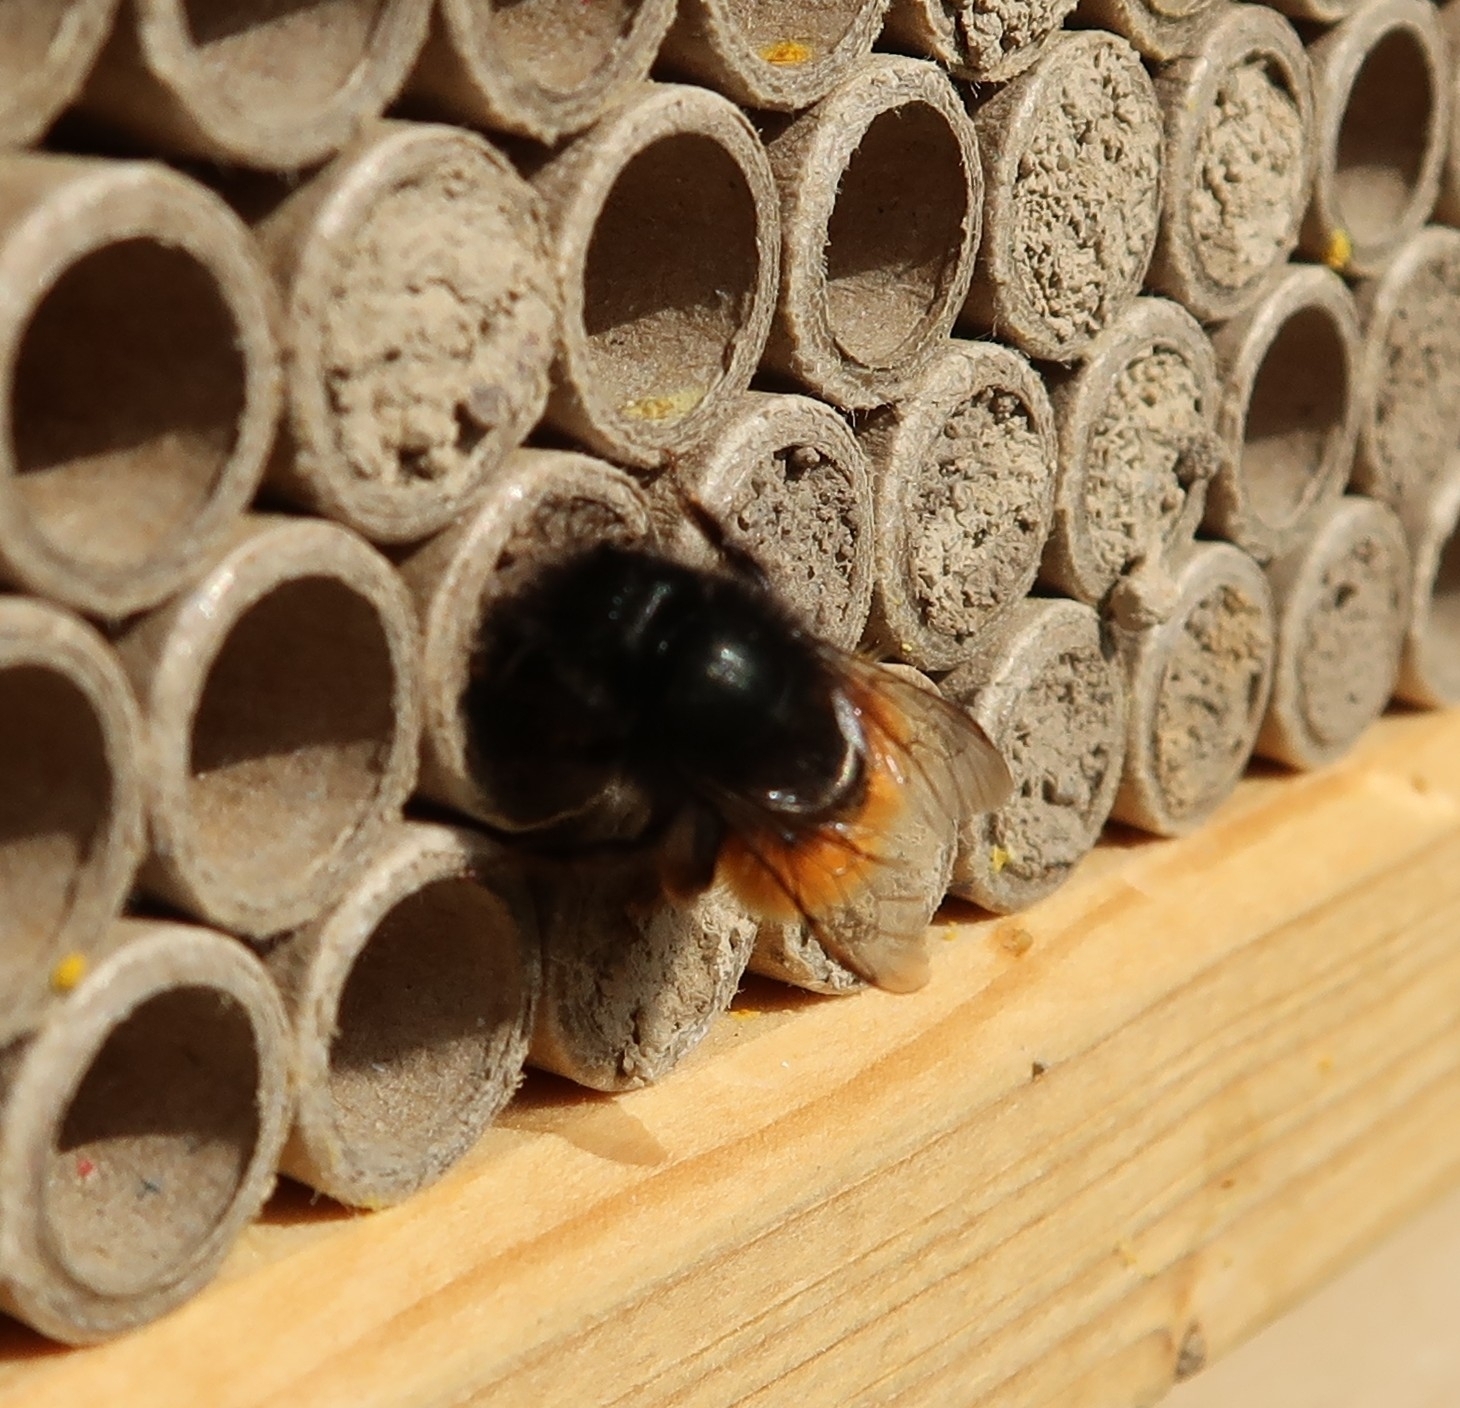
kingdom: Animalia
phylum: Arthropoda
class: Insecta
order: Hymenoptera
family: Megachilidae
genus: Osmia
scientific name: Osmia cornuta
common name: Mason bee
